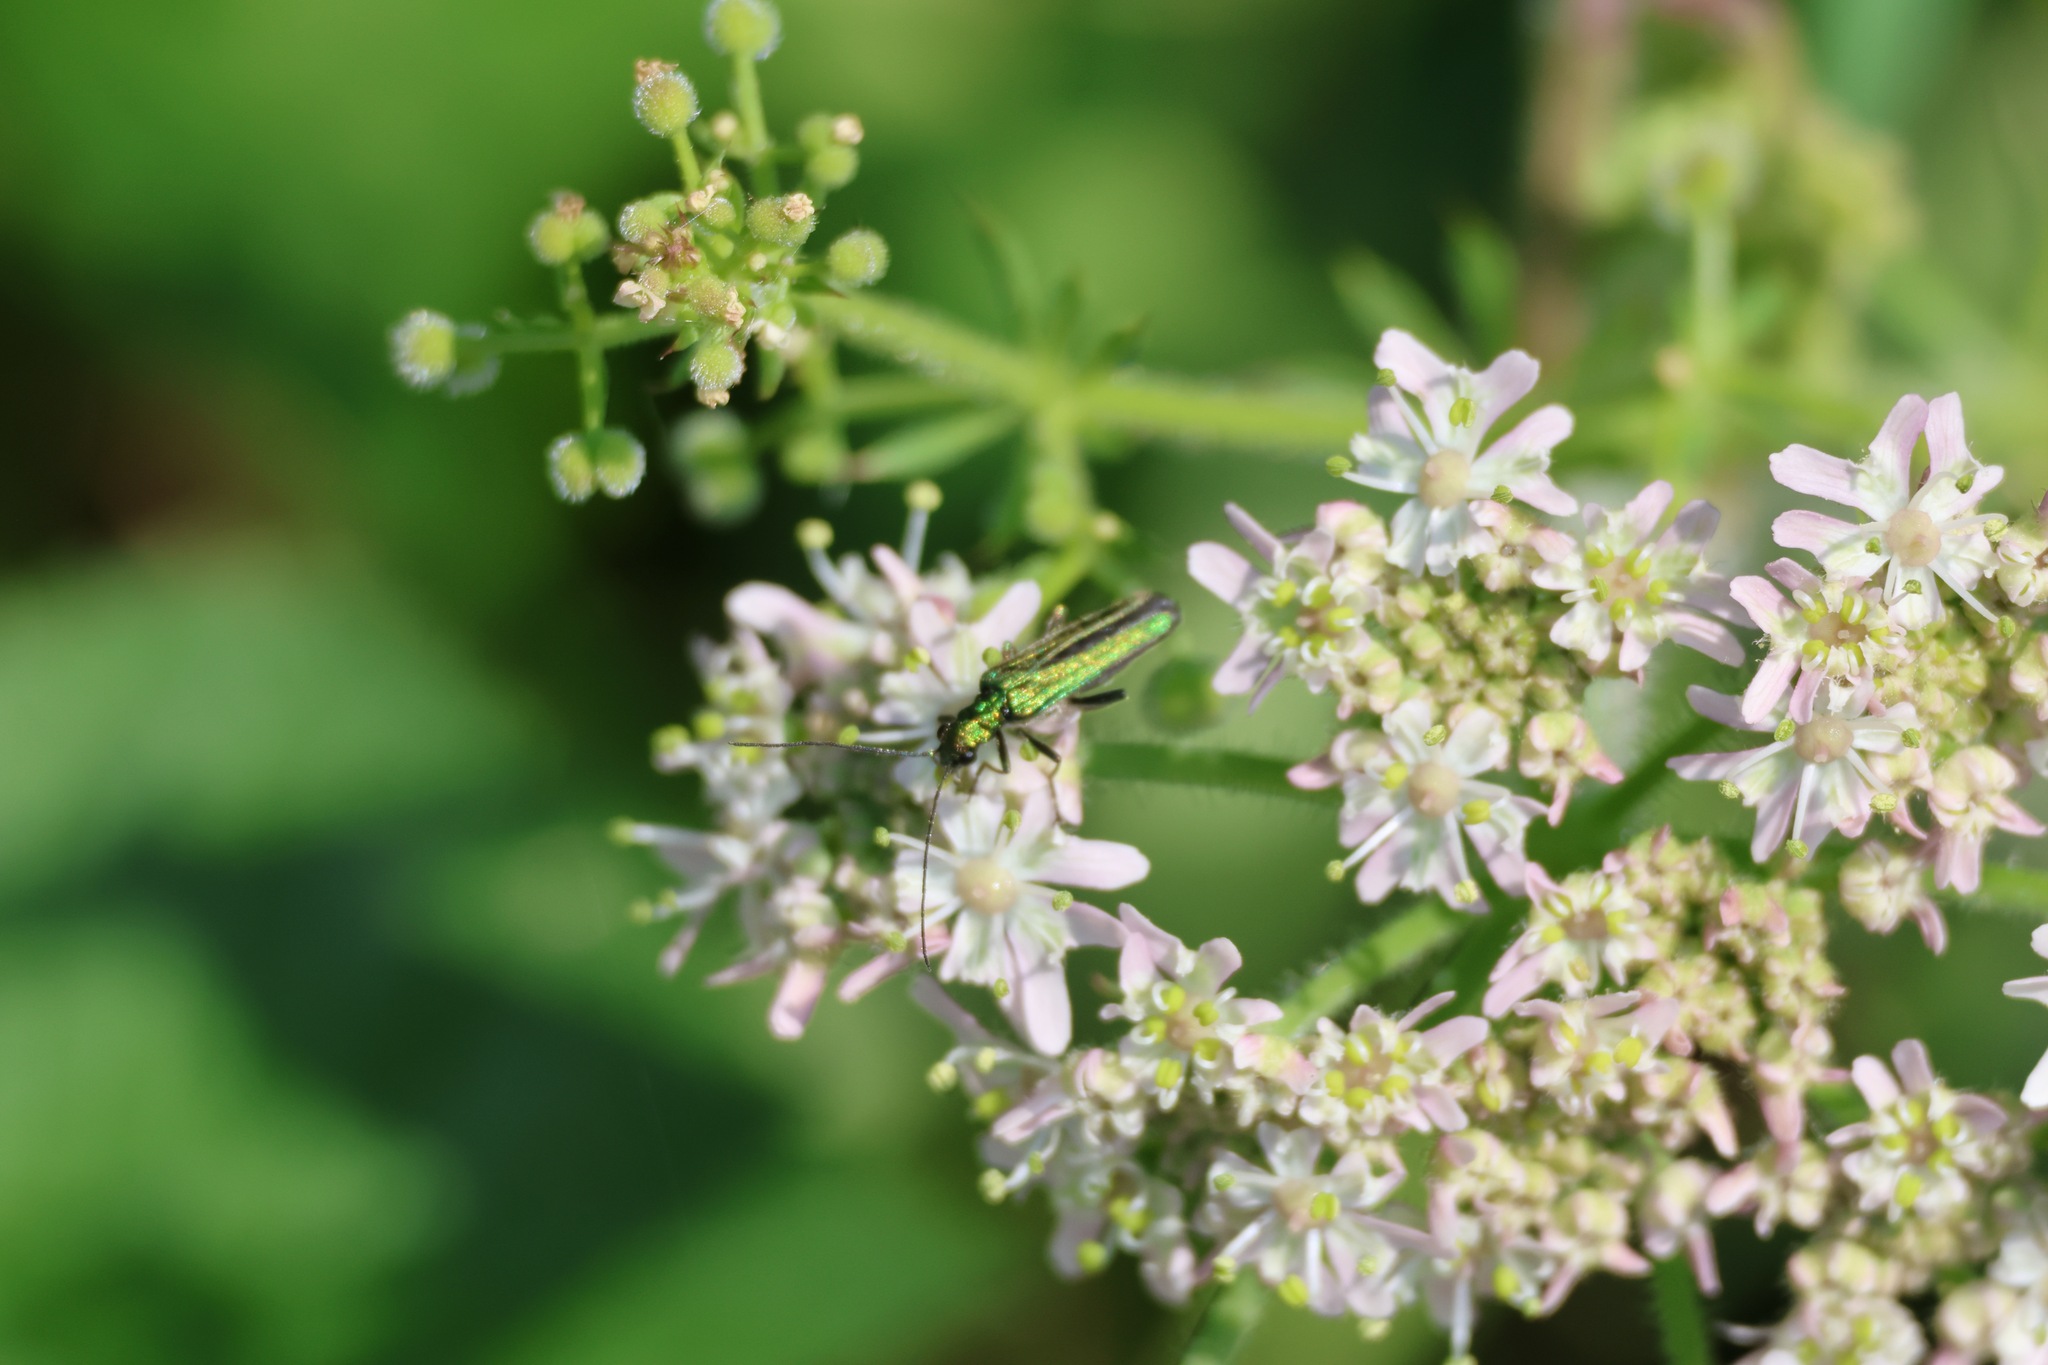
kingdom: Animalia
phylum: Arthropoda
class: Insecta
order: Coleoptera
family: Oedemeridae
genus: Oedemera
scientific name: Oedemera nobilis
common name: Swollen-thighed beetle
